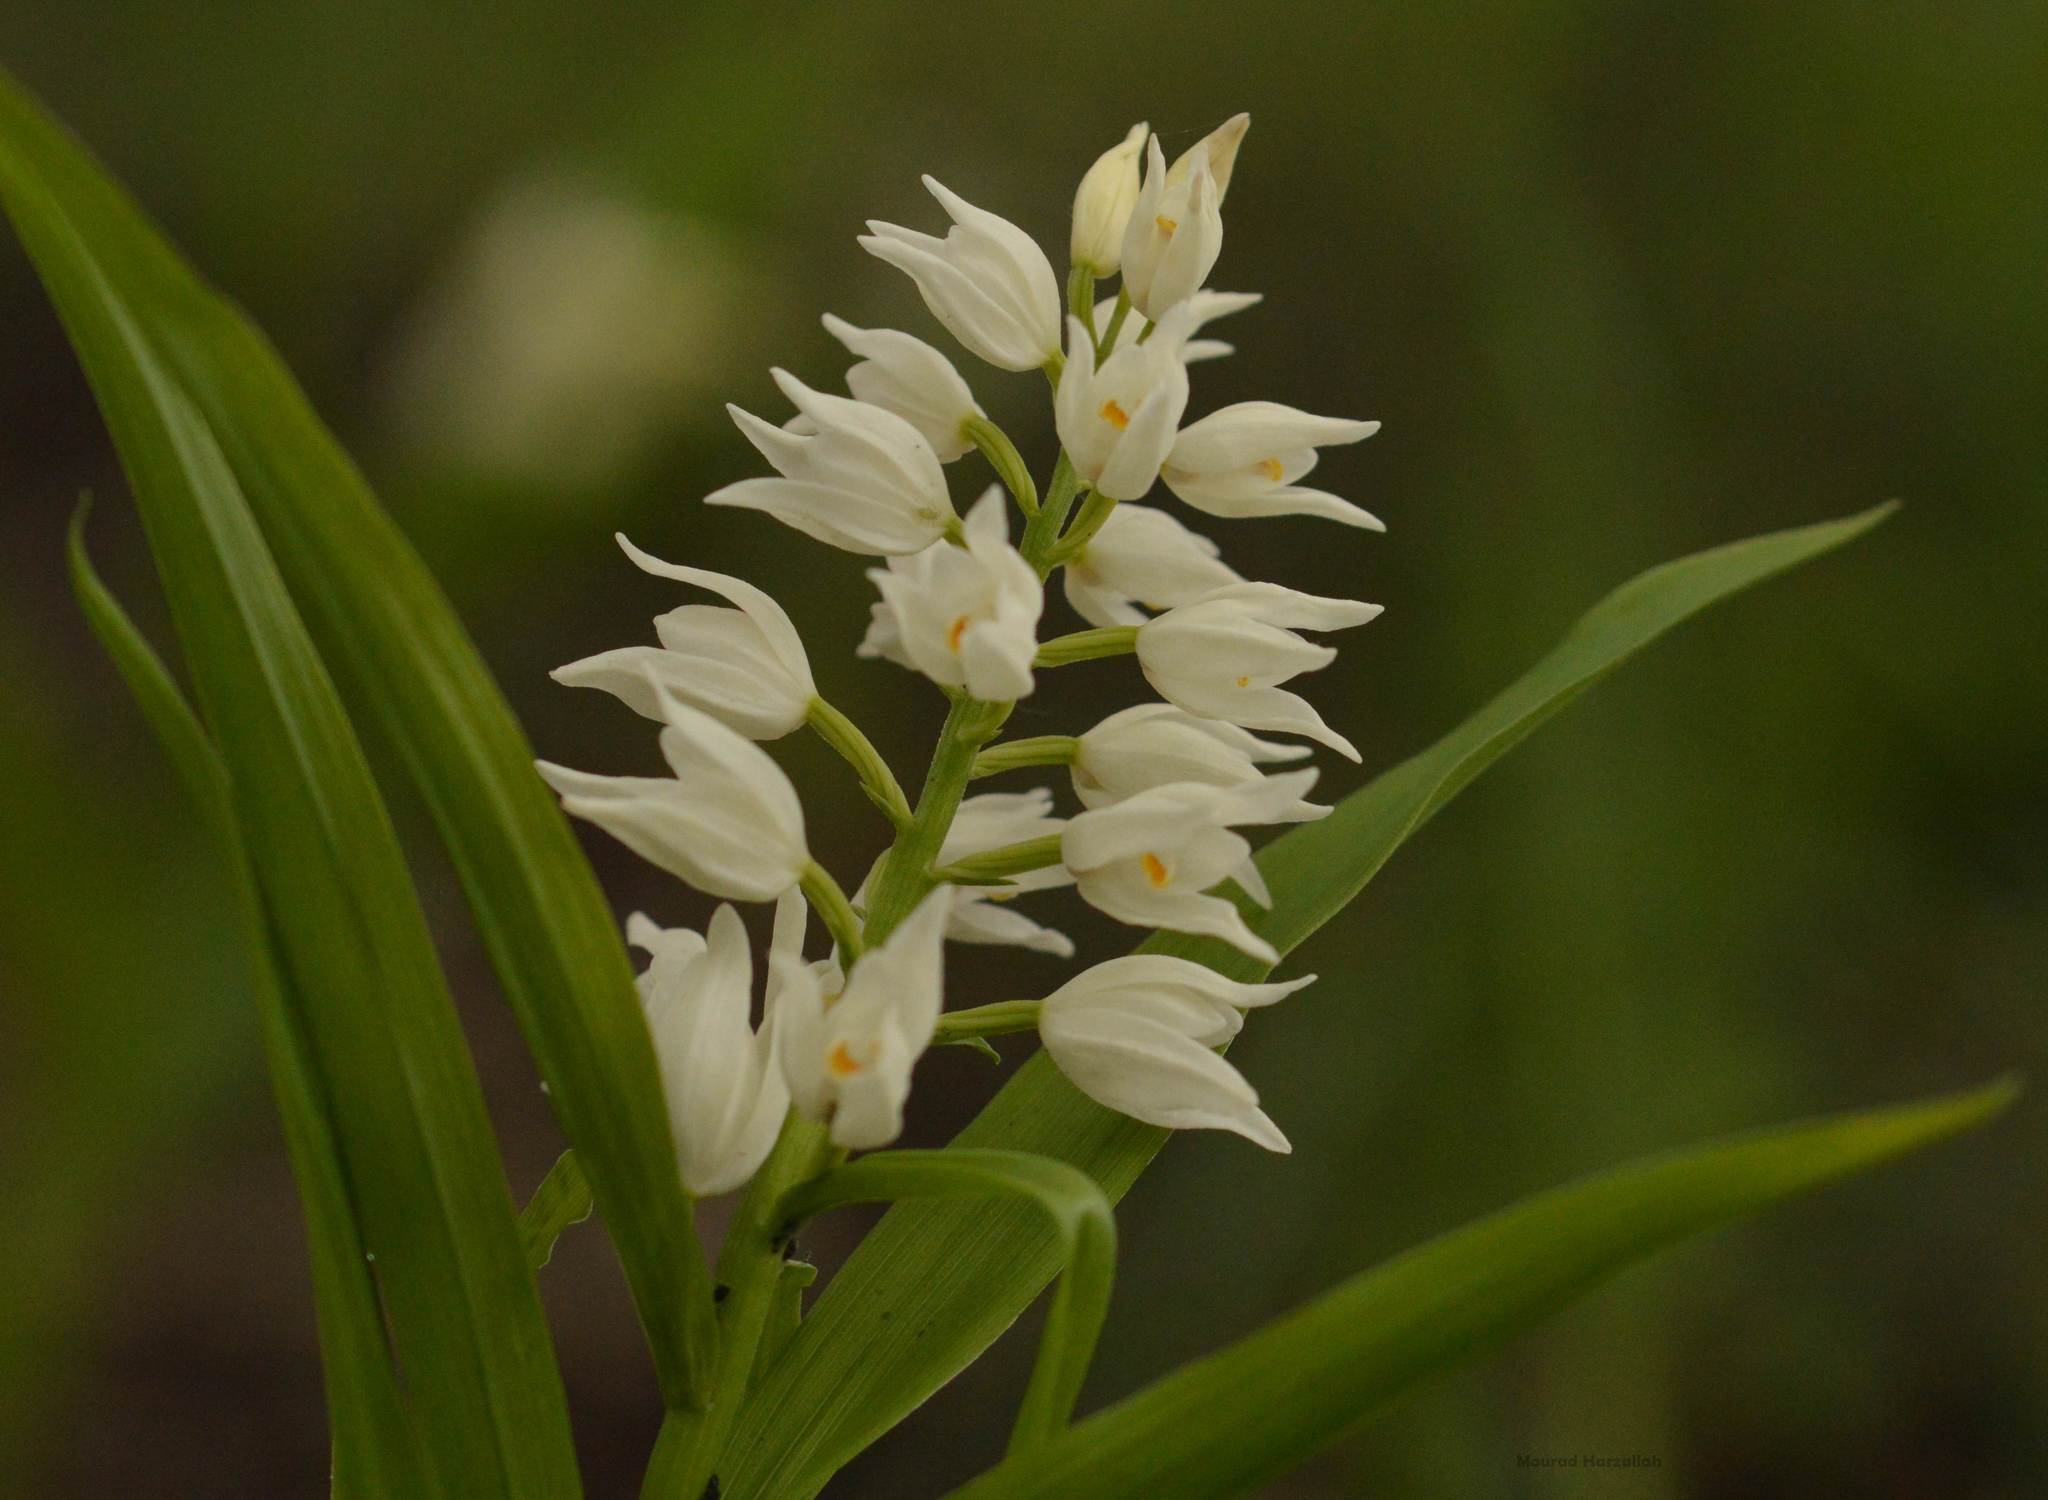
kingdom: Plantae
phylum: Tracheophyta
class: Liliopsida
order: Asparagales
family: Orchidaceae
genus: Cephalanthera
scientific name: Cephalanthera longifolia
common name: Narrow-leaved helleborine
